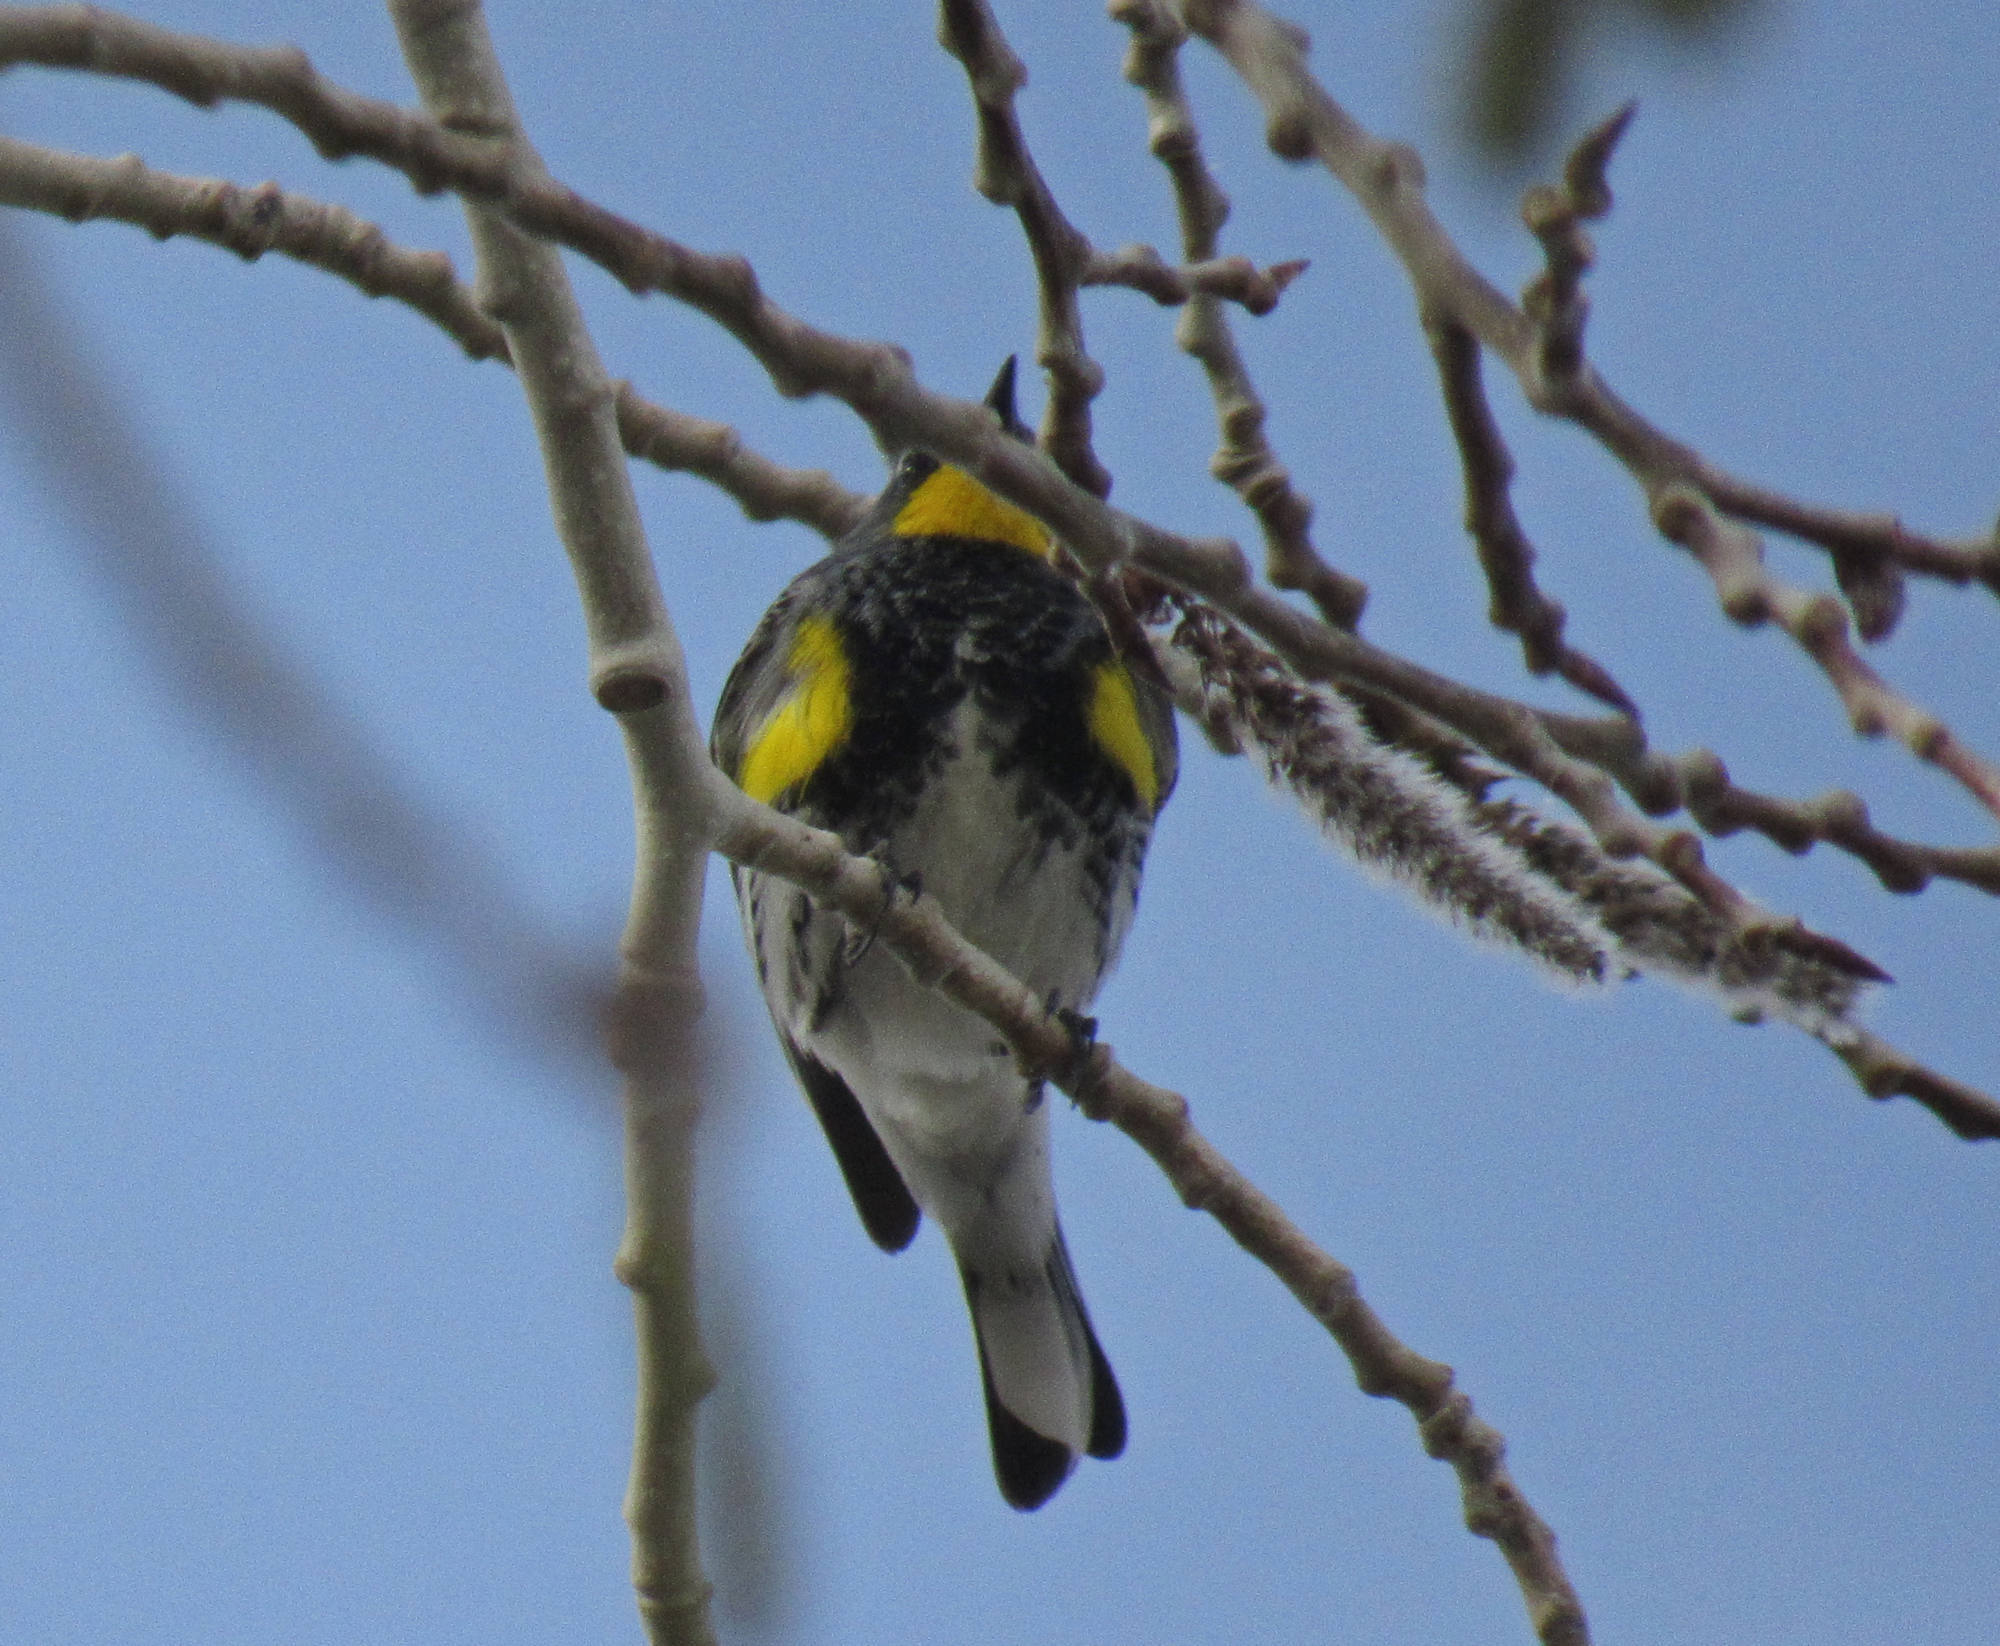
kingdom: Animalia
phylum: Chordata
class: Aves
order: Passeriformes
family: Parulidae
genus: Setophaga
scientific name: Setophaga auduboni
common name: Audubon's warbler
